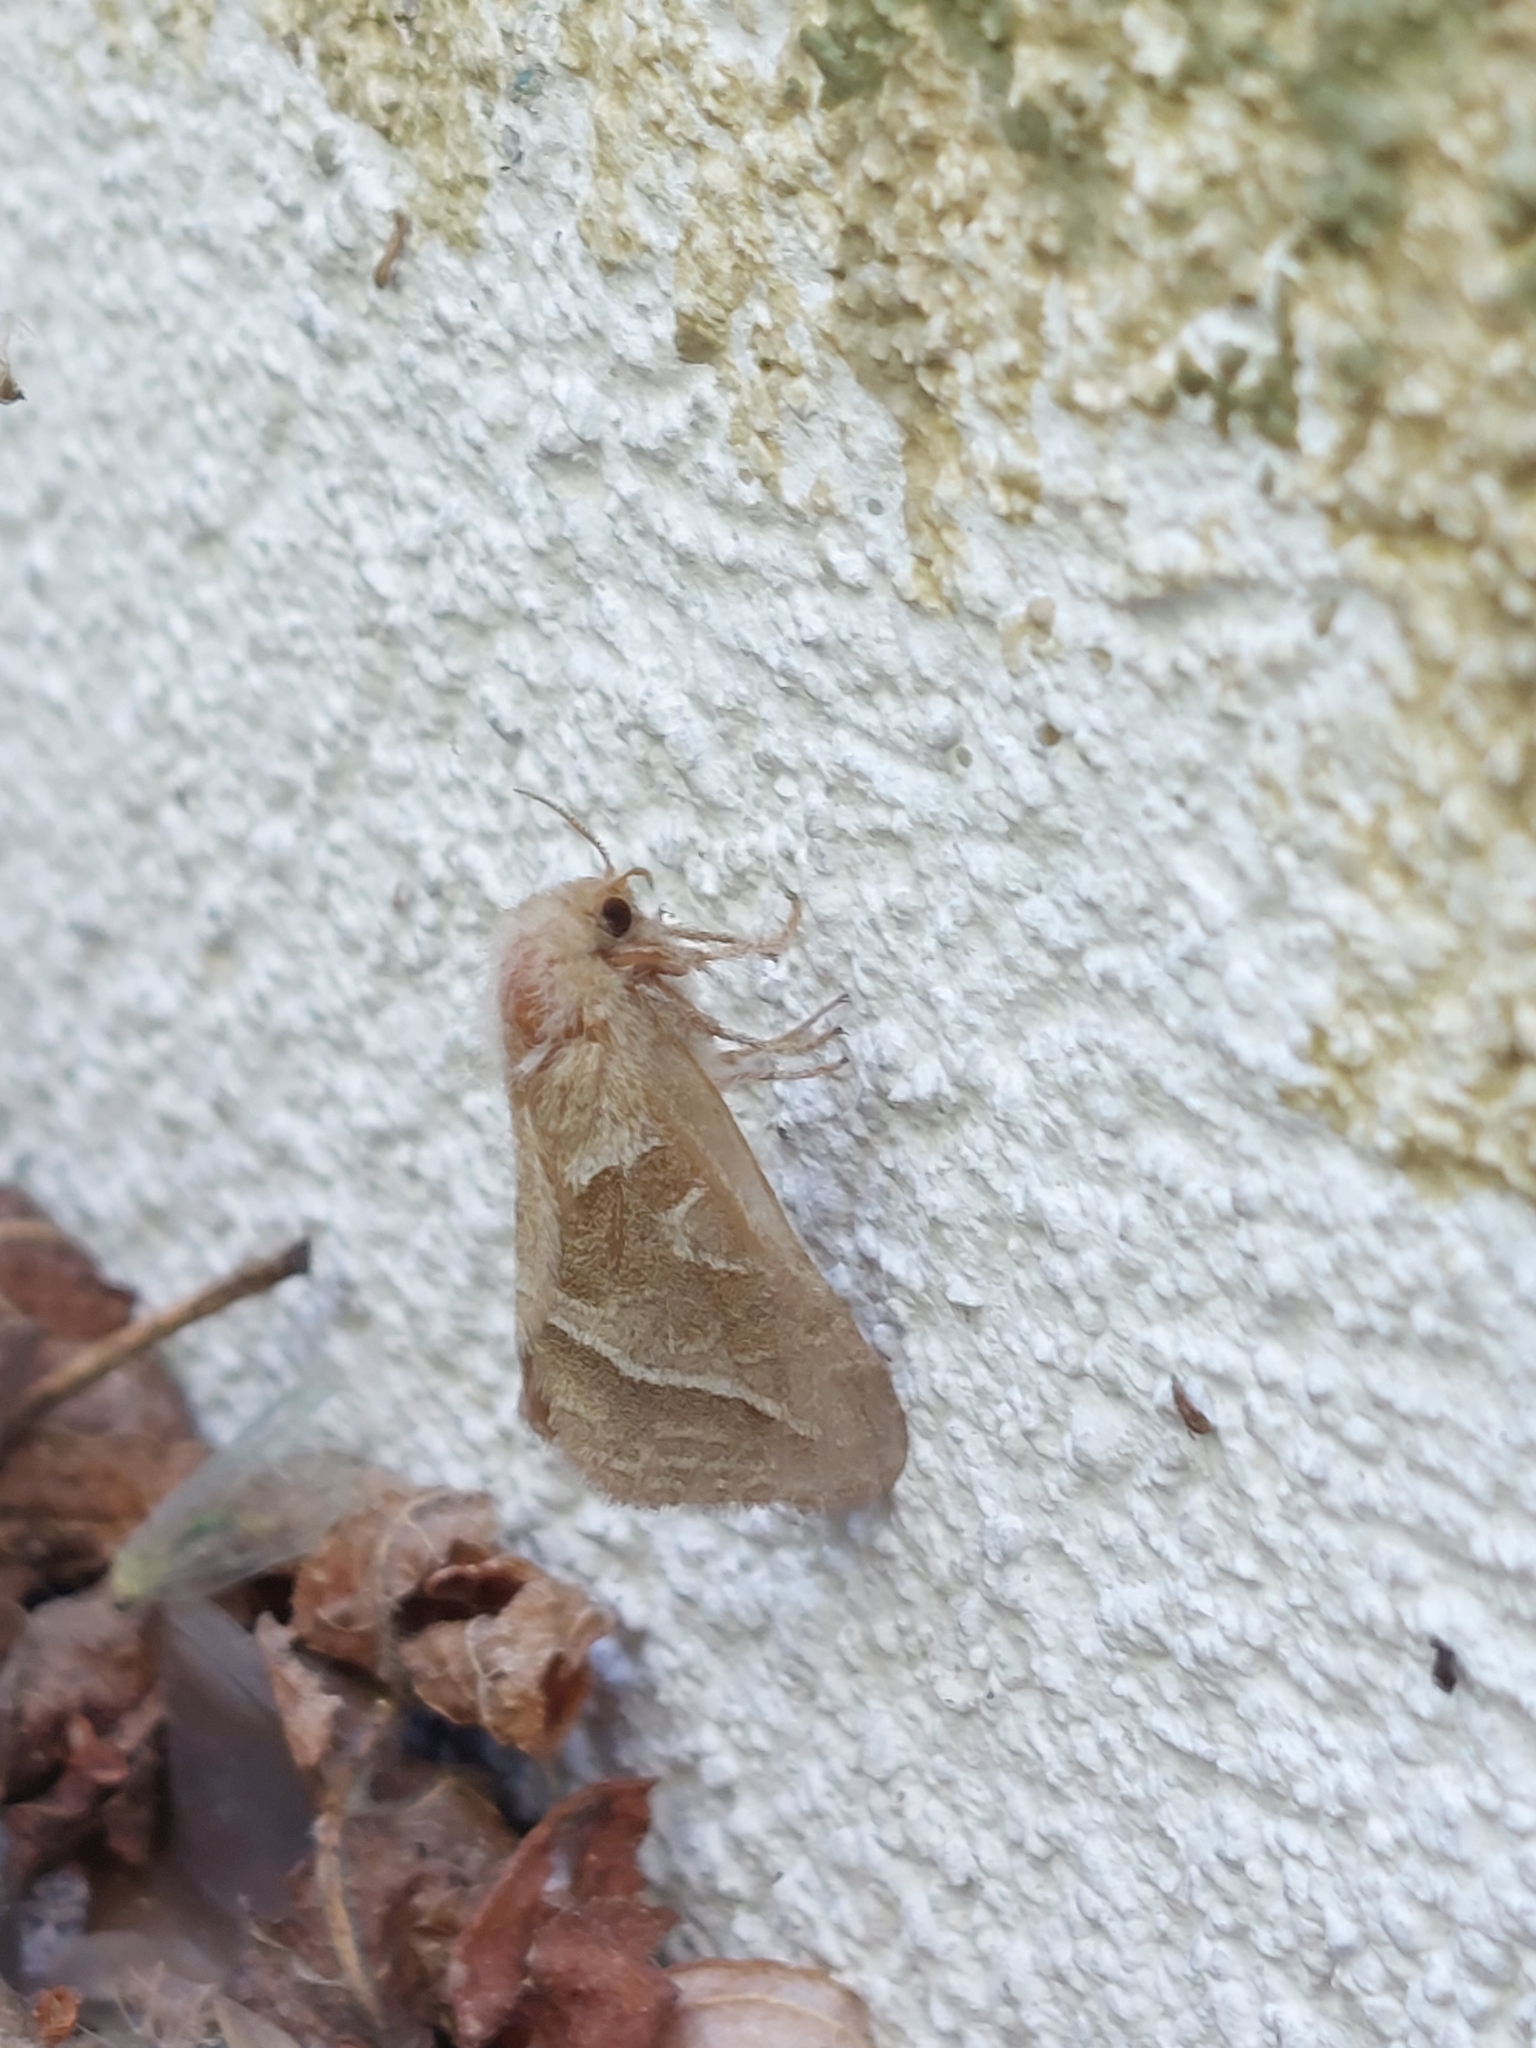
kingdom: Animalia
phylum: Arthropoda
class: Insecta
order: Lepidoptera
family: Hepialidae
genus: Triodia
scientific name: Triodia sylvina
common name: Orange swift
